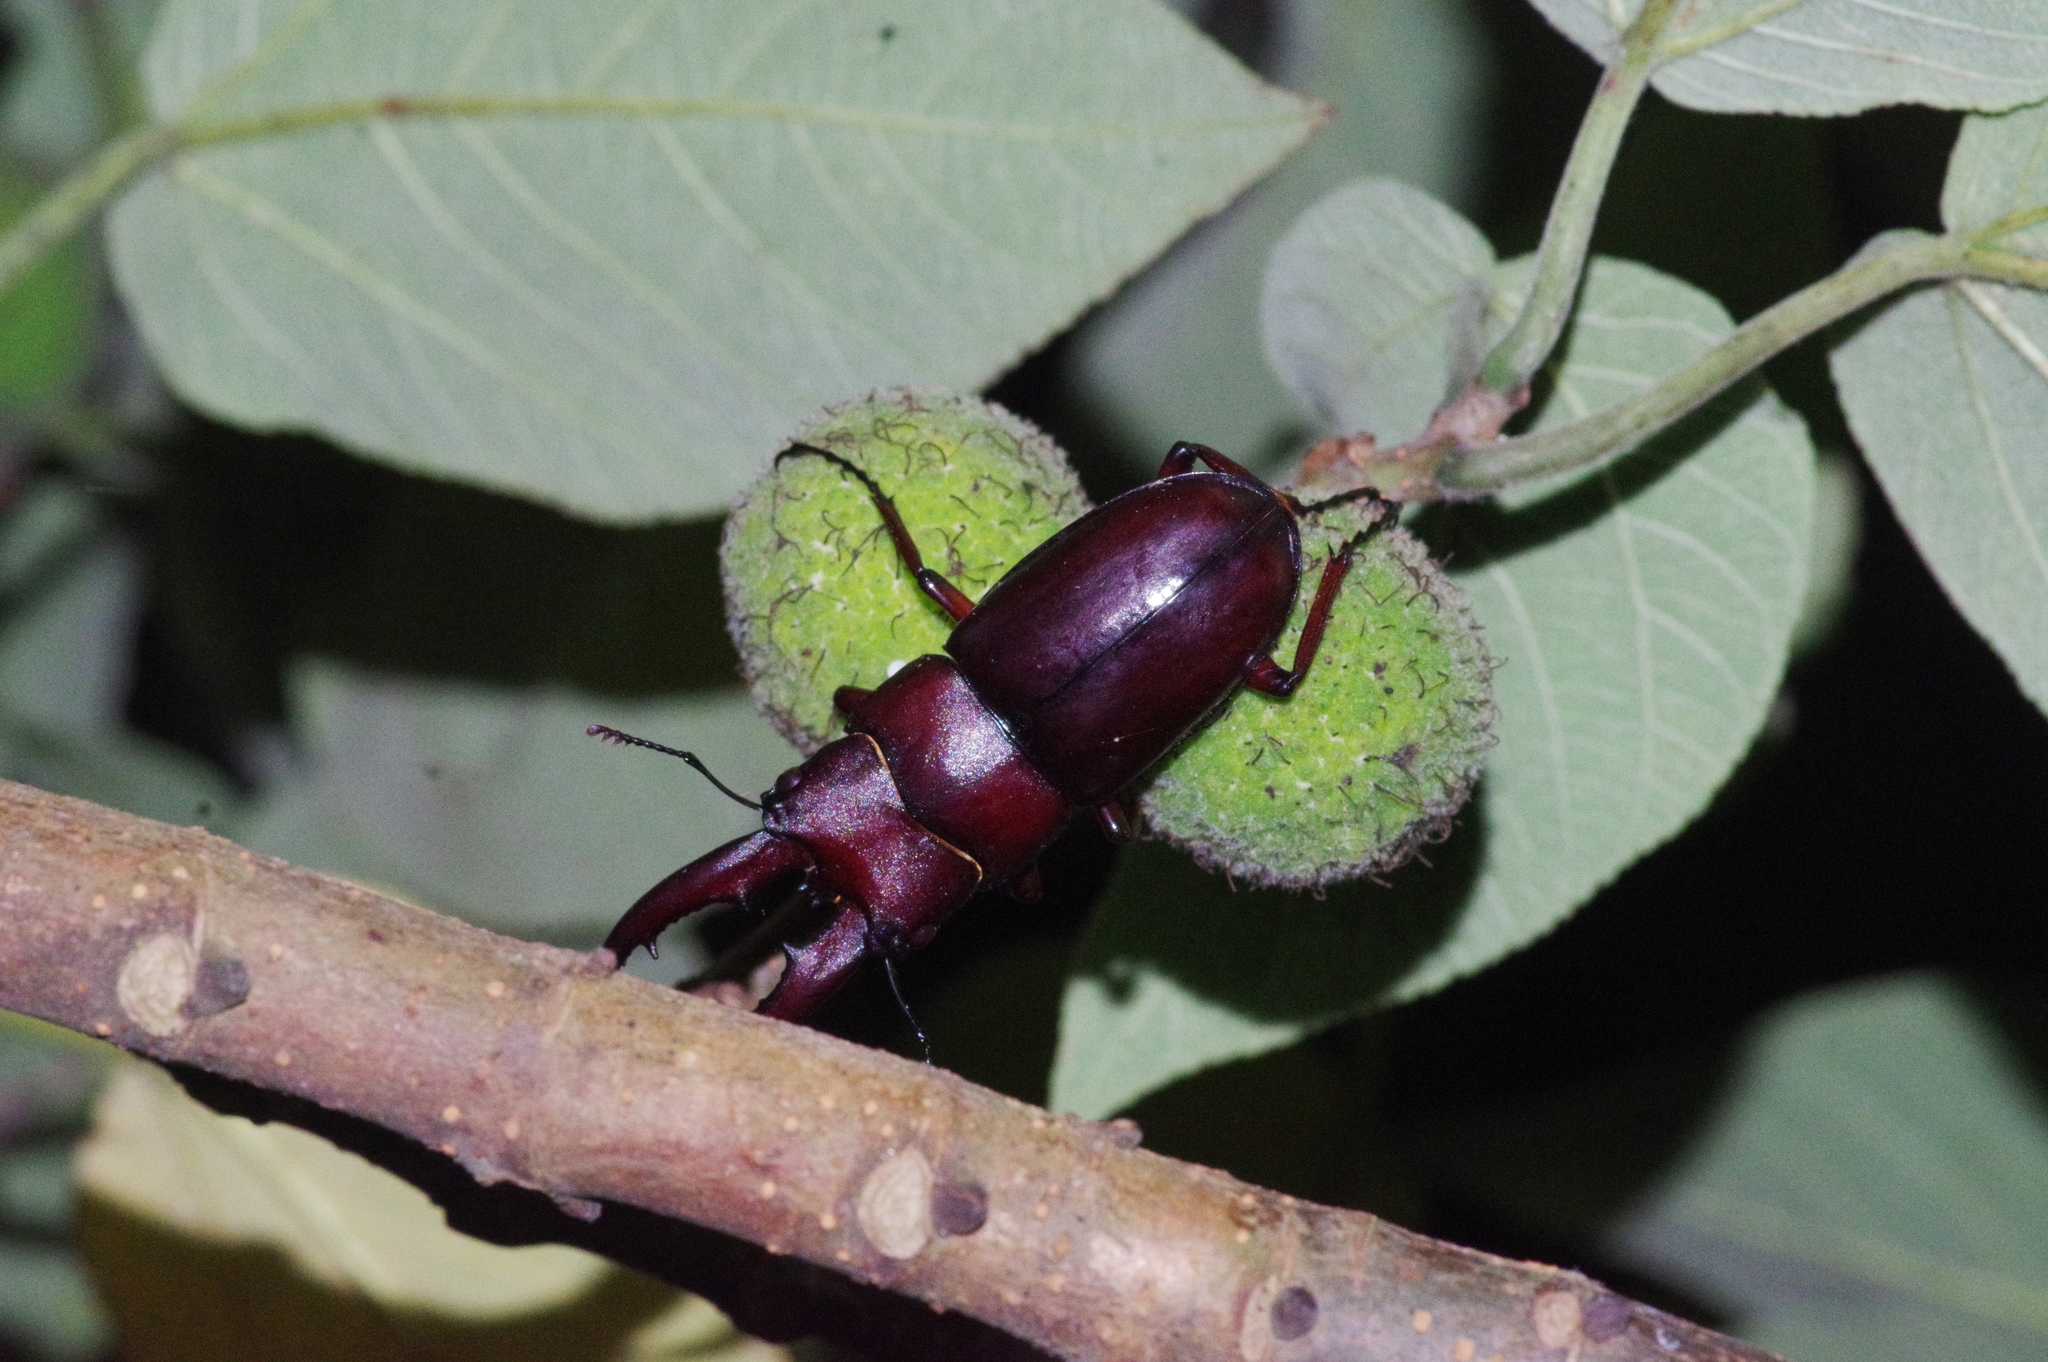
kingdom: Animalia
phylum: Arthropoda
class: Insecta
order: Coleoptera
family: Lucanidae
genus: Prosopocoilus
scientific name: Prosopocoilus dissimilis
